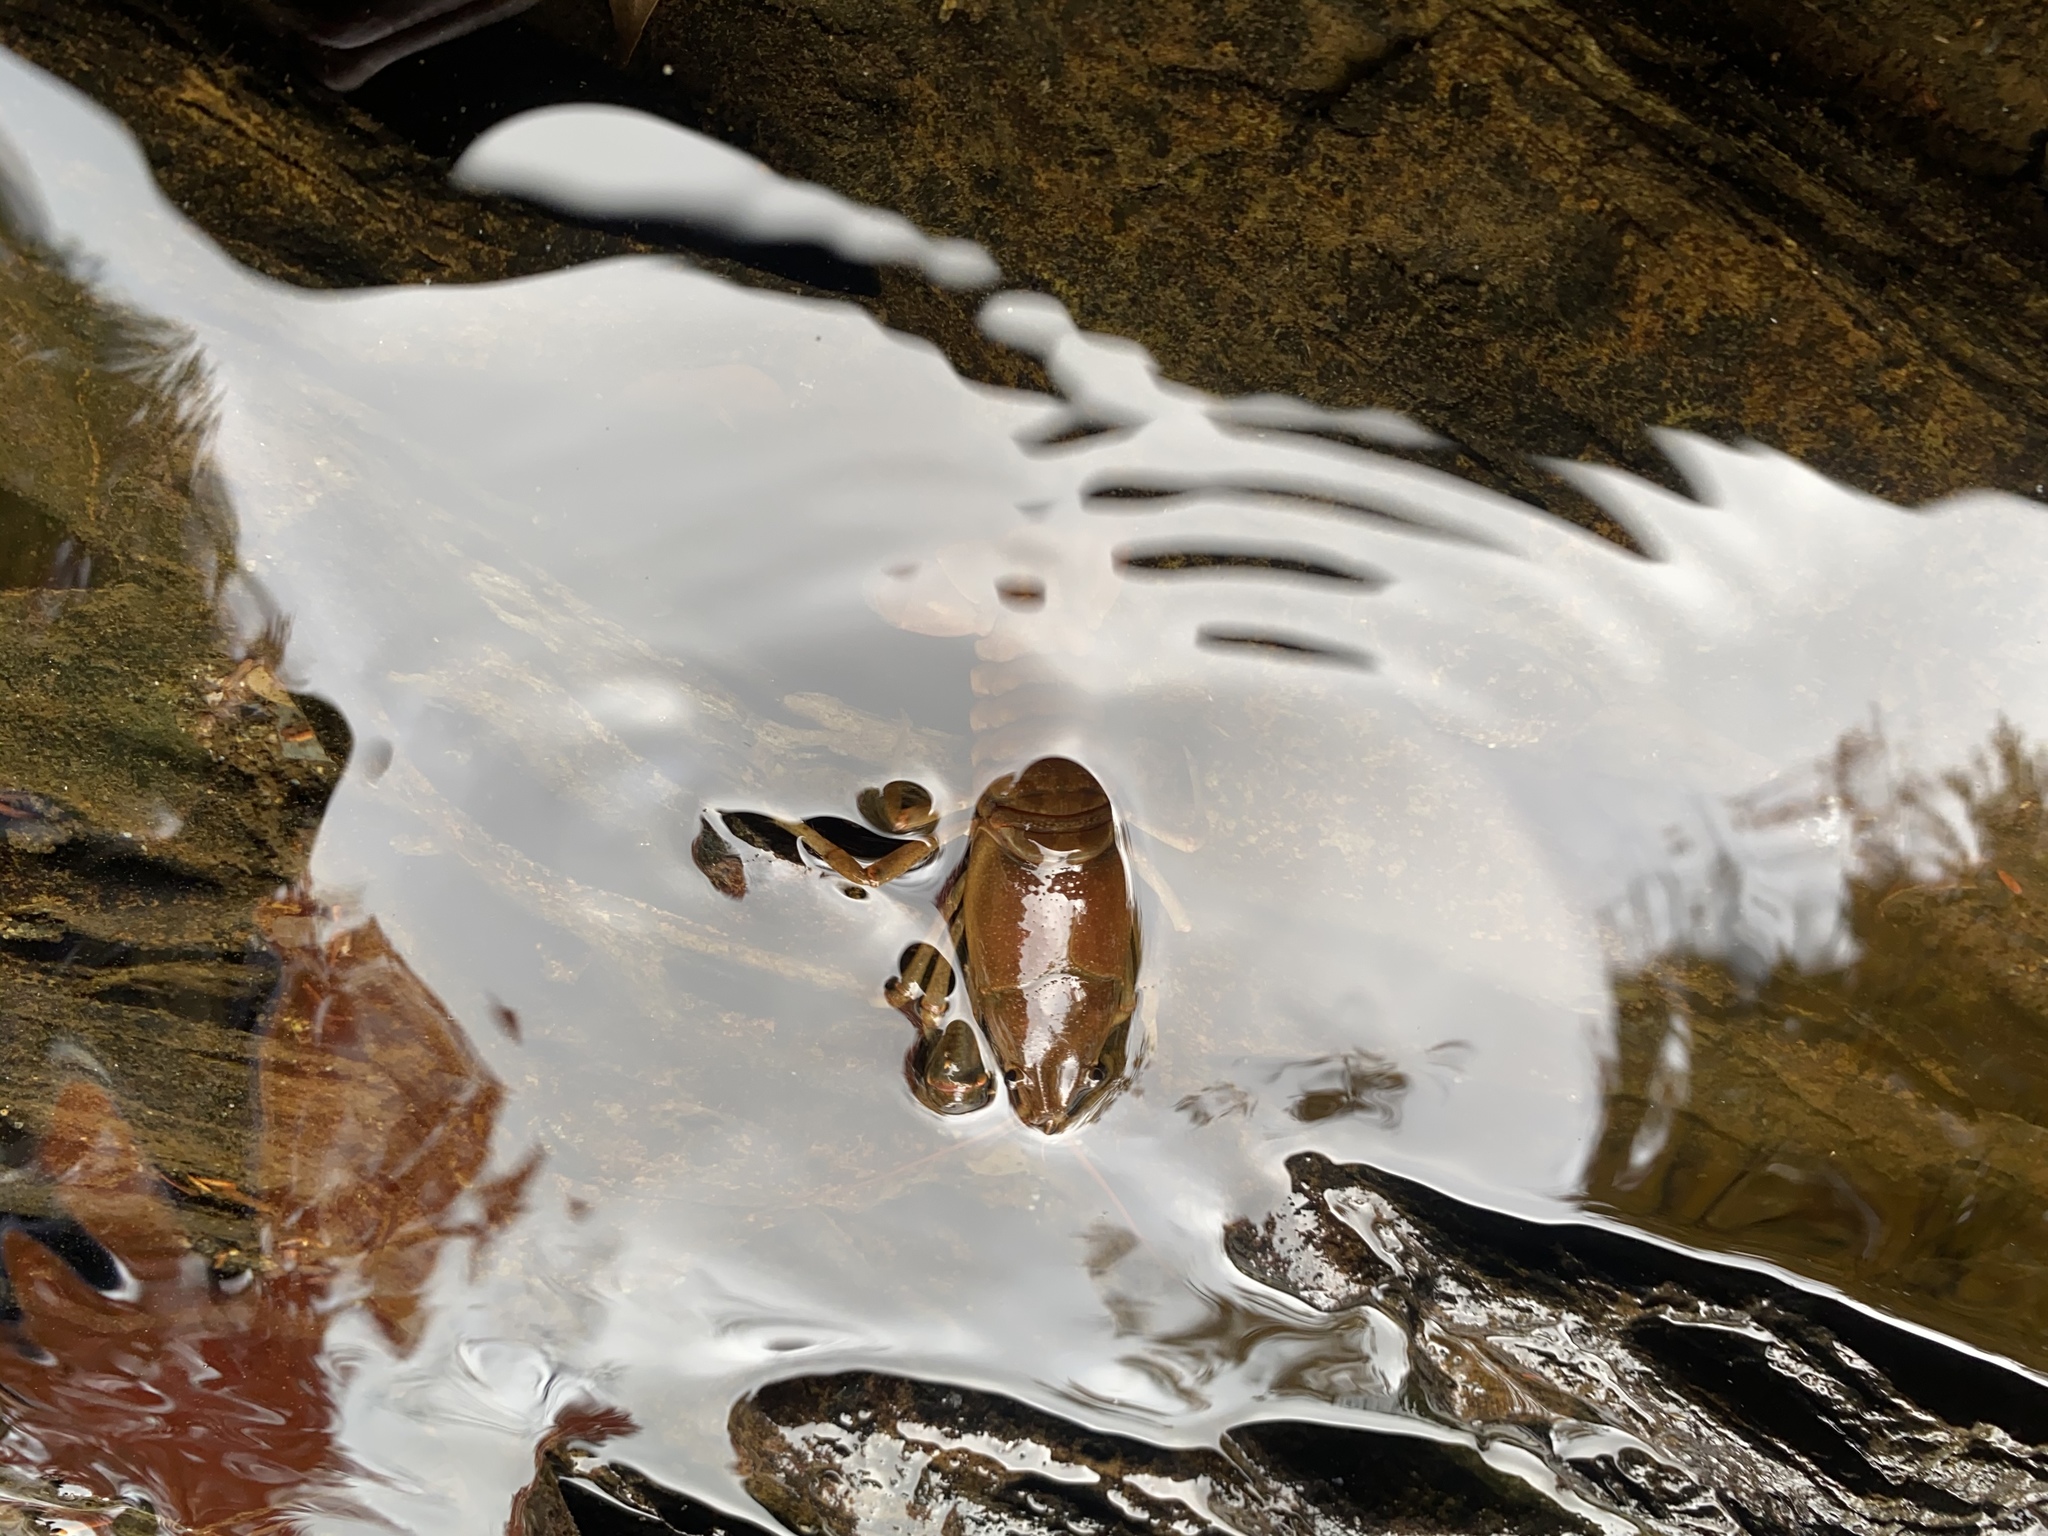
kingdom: Animalia
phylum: Arthropoda
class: Malacostraca
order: Decapoda
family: Cambaridae
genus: Faxonius
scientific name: Faxonius virilis
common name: Virile crayfish
